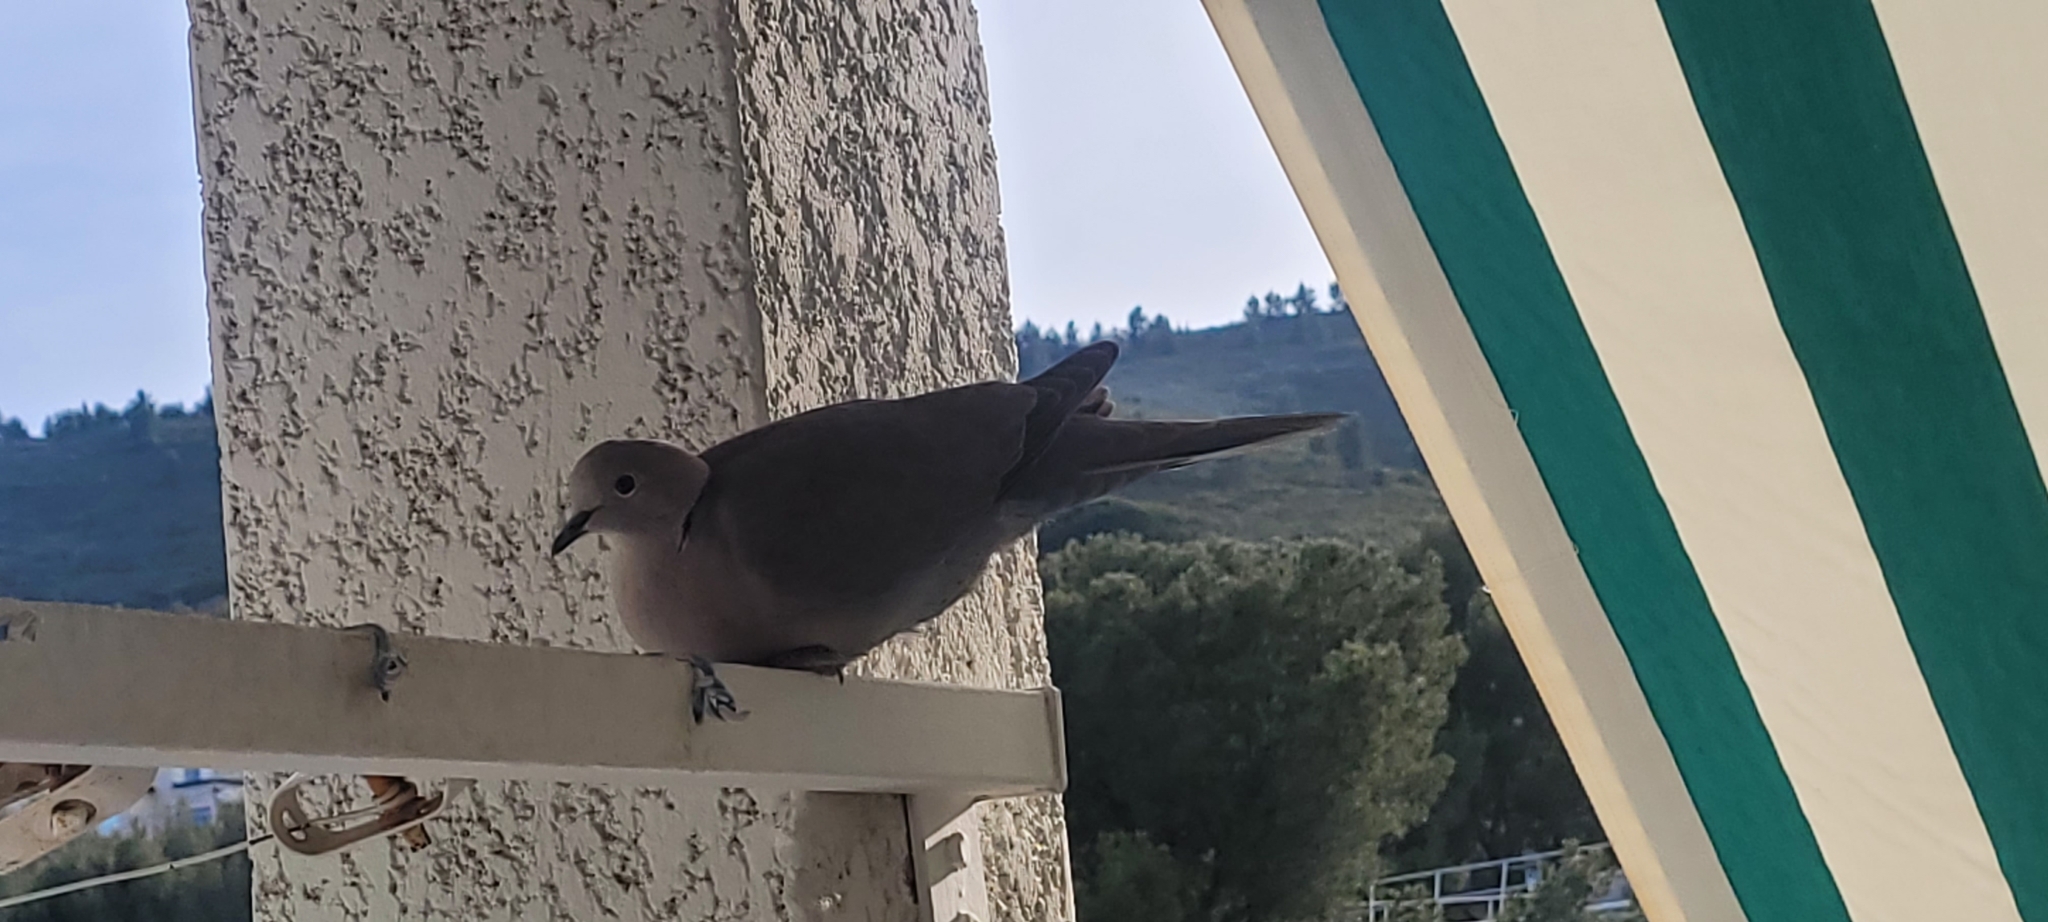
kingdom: Animalia
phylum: Chordata
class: Aves
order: Columbiformes
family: Columbidae
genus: Streptopelia
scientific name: Streptopelia decaocto
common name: Eurasian collared dove
